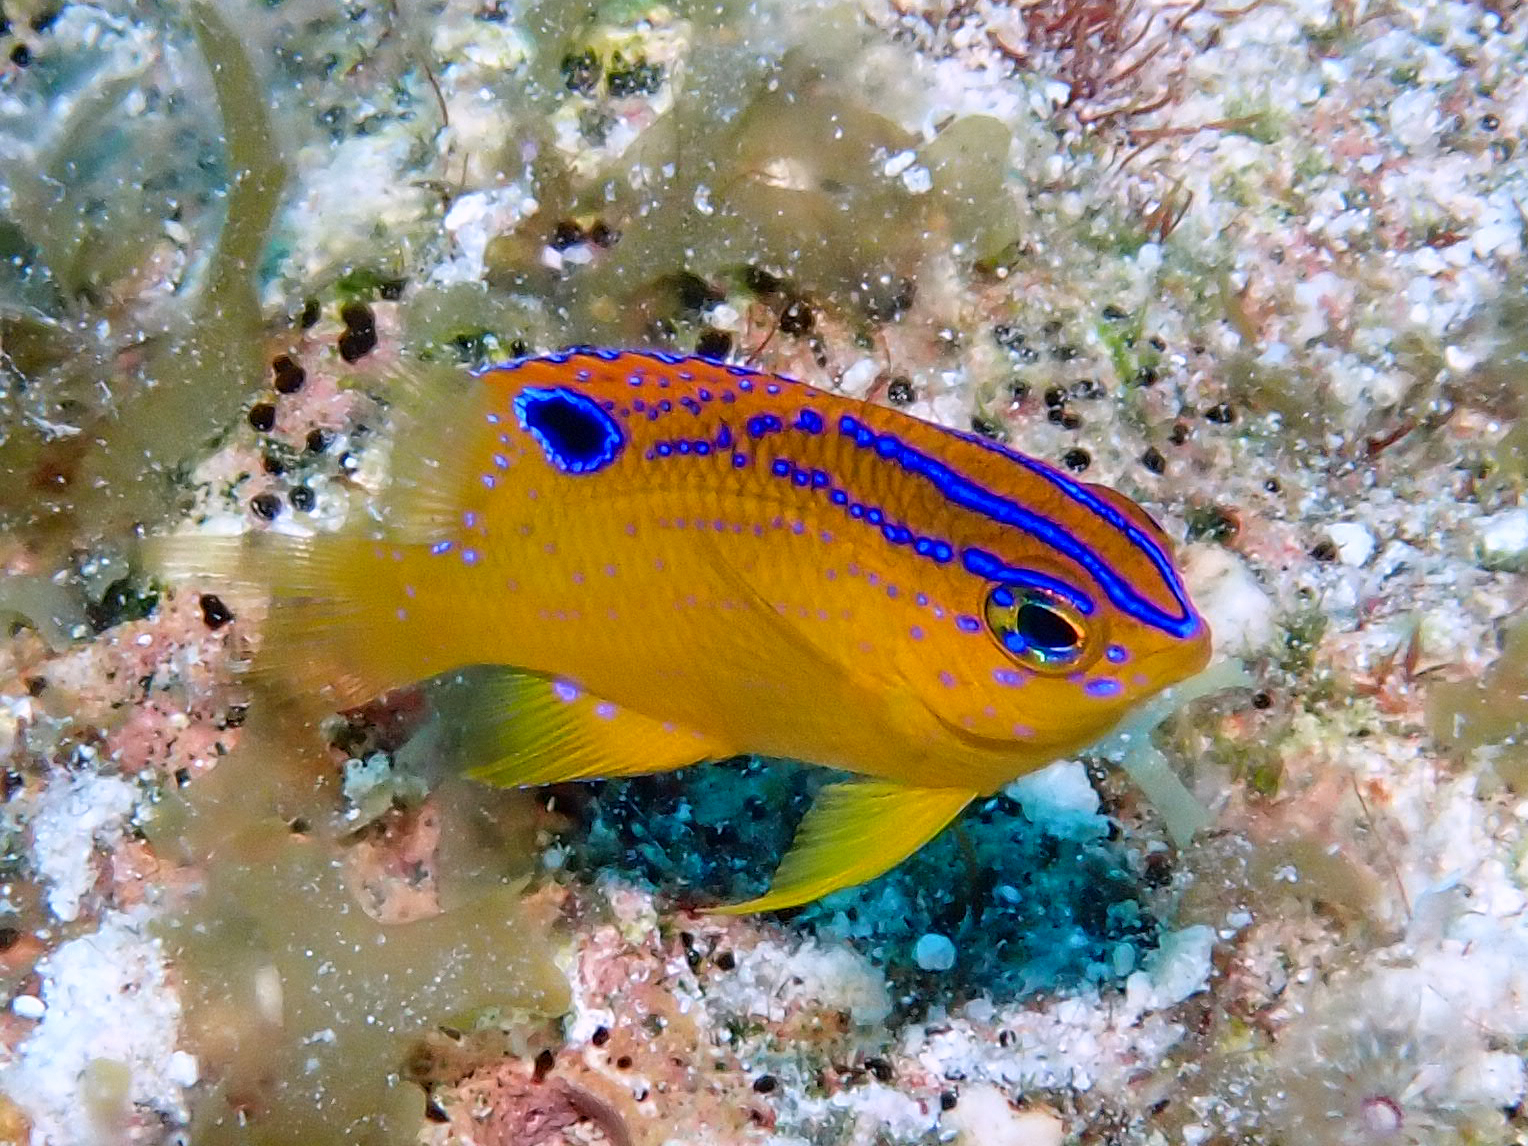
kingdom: Animalia
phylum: Chordata
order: Perciformes
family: Pomacentridae
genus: Stegastes
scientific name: Stegastes diencaeus
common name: Longfin damselfish
